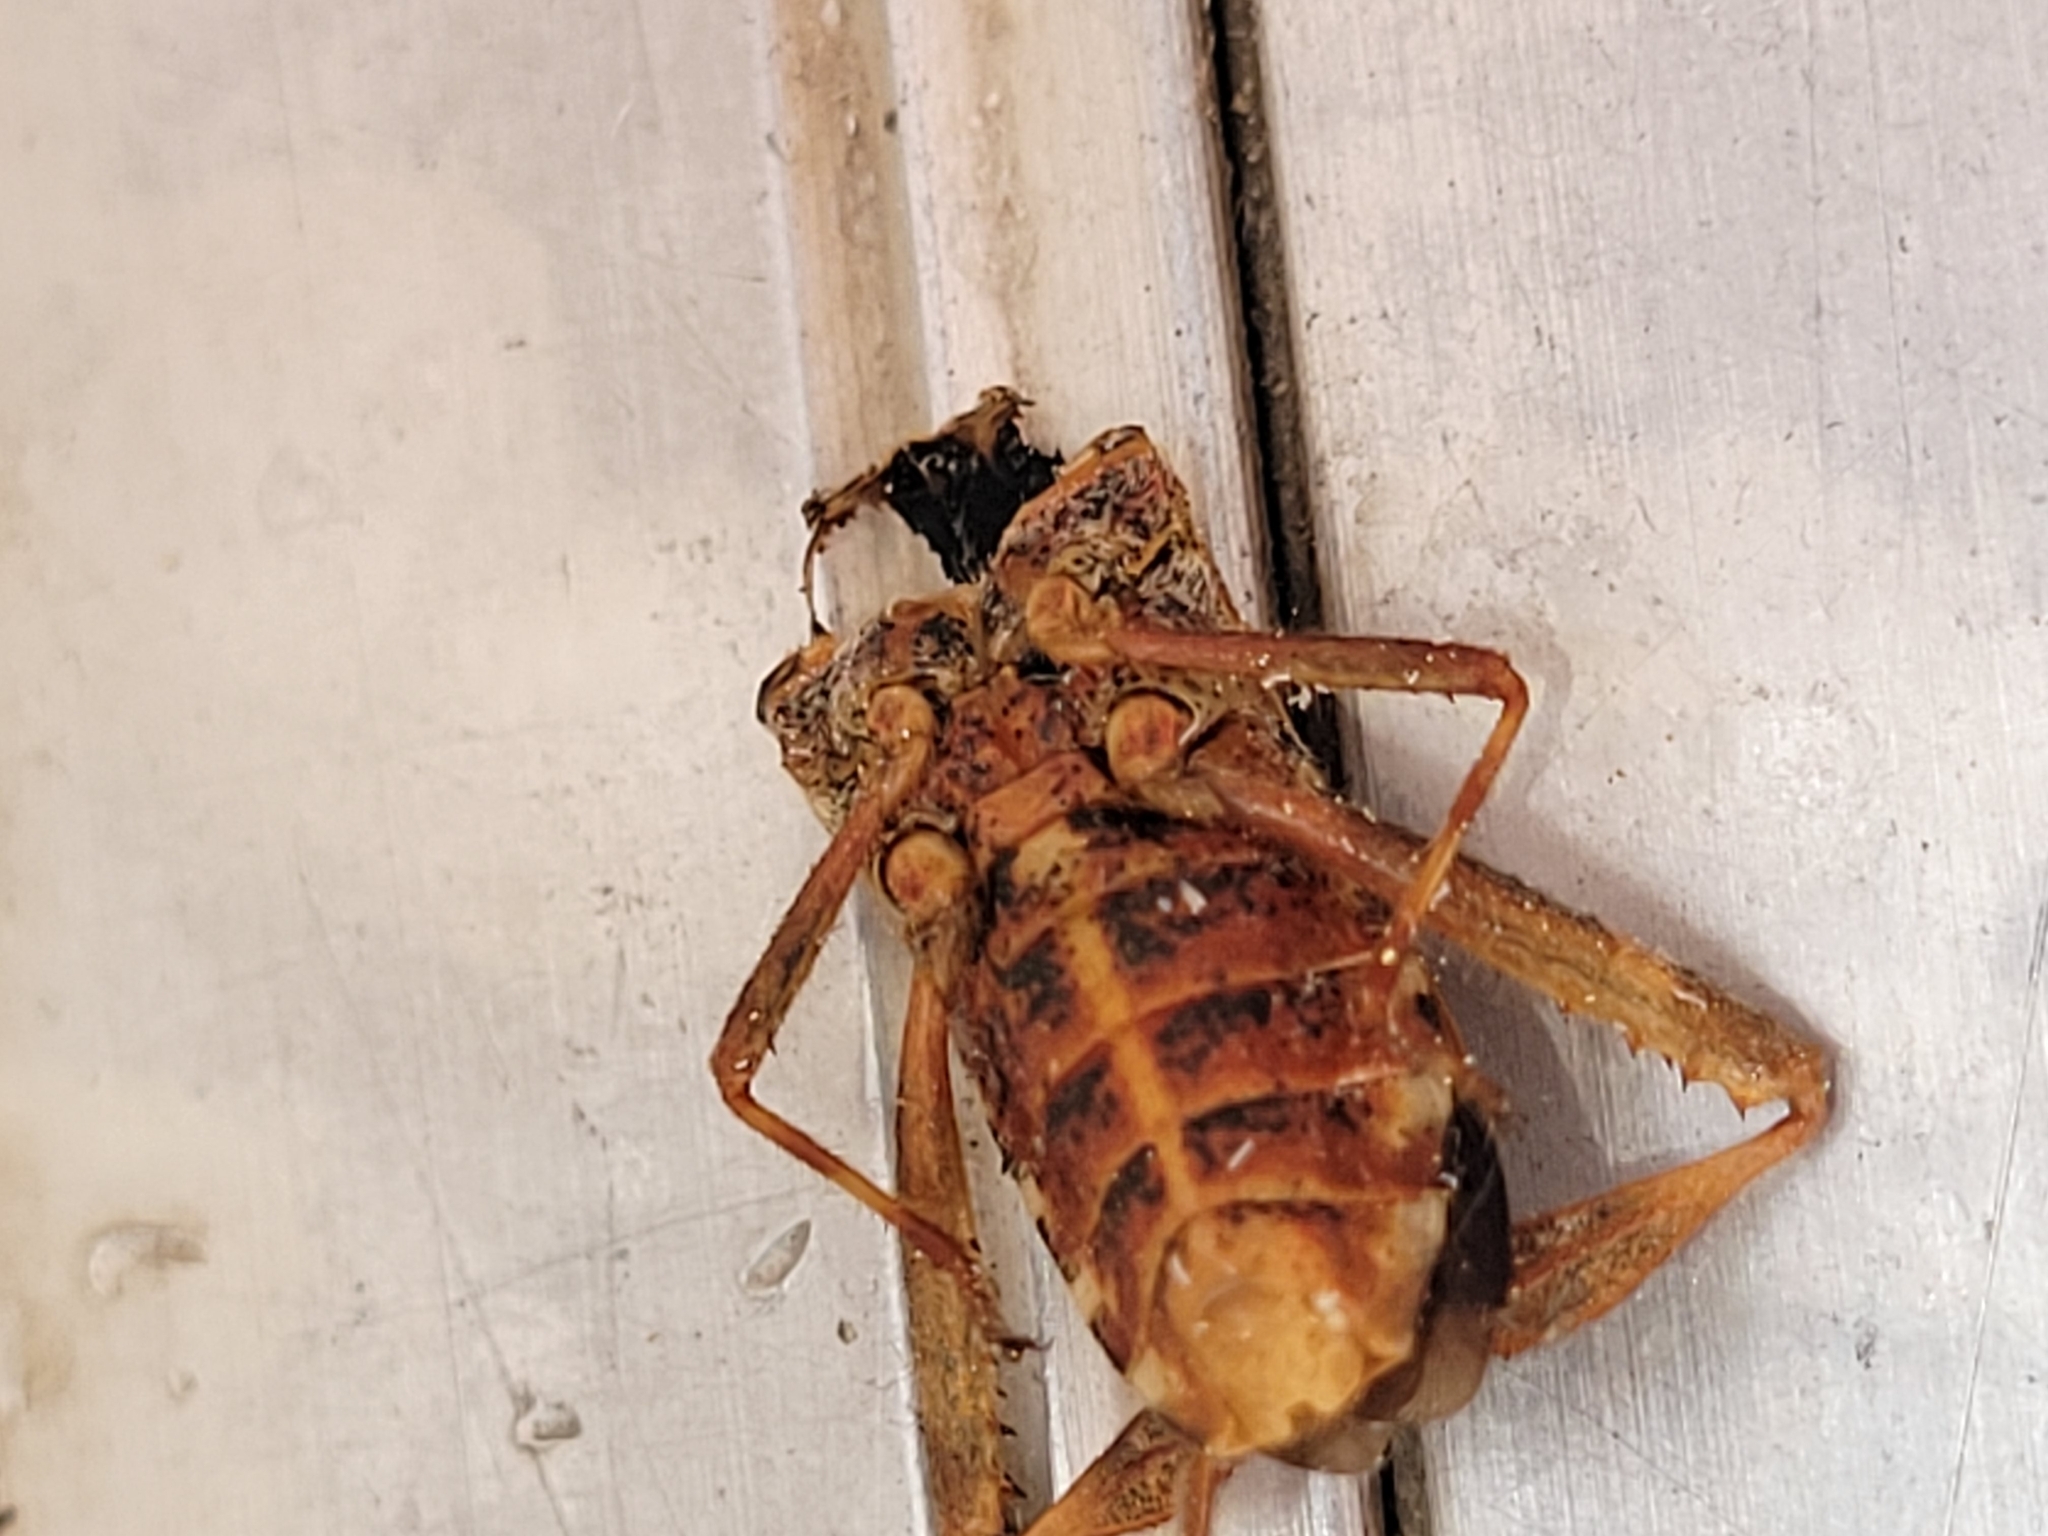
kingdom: Animalia
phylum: Arthropoda
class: Insecta
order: Hemiptera
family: Coreidae
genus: Leptoglossus
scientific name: Leptoglossus occidentalis
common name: Western conifer-seed bug
